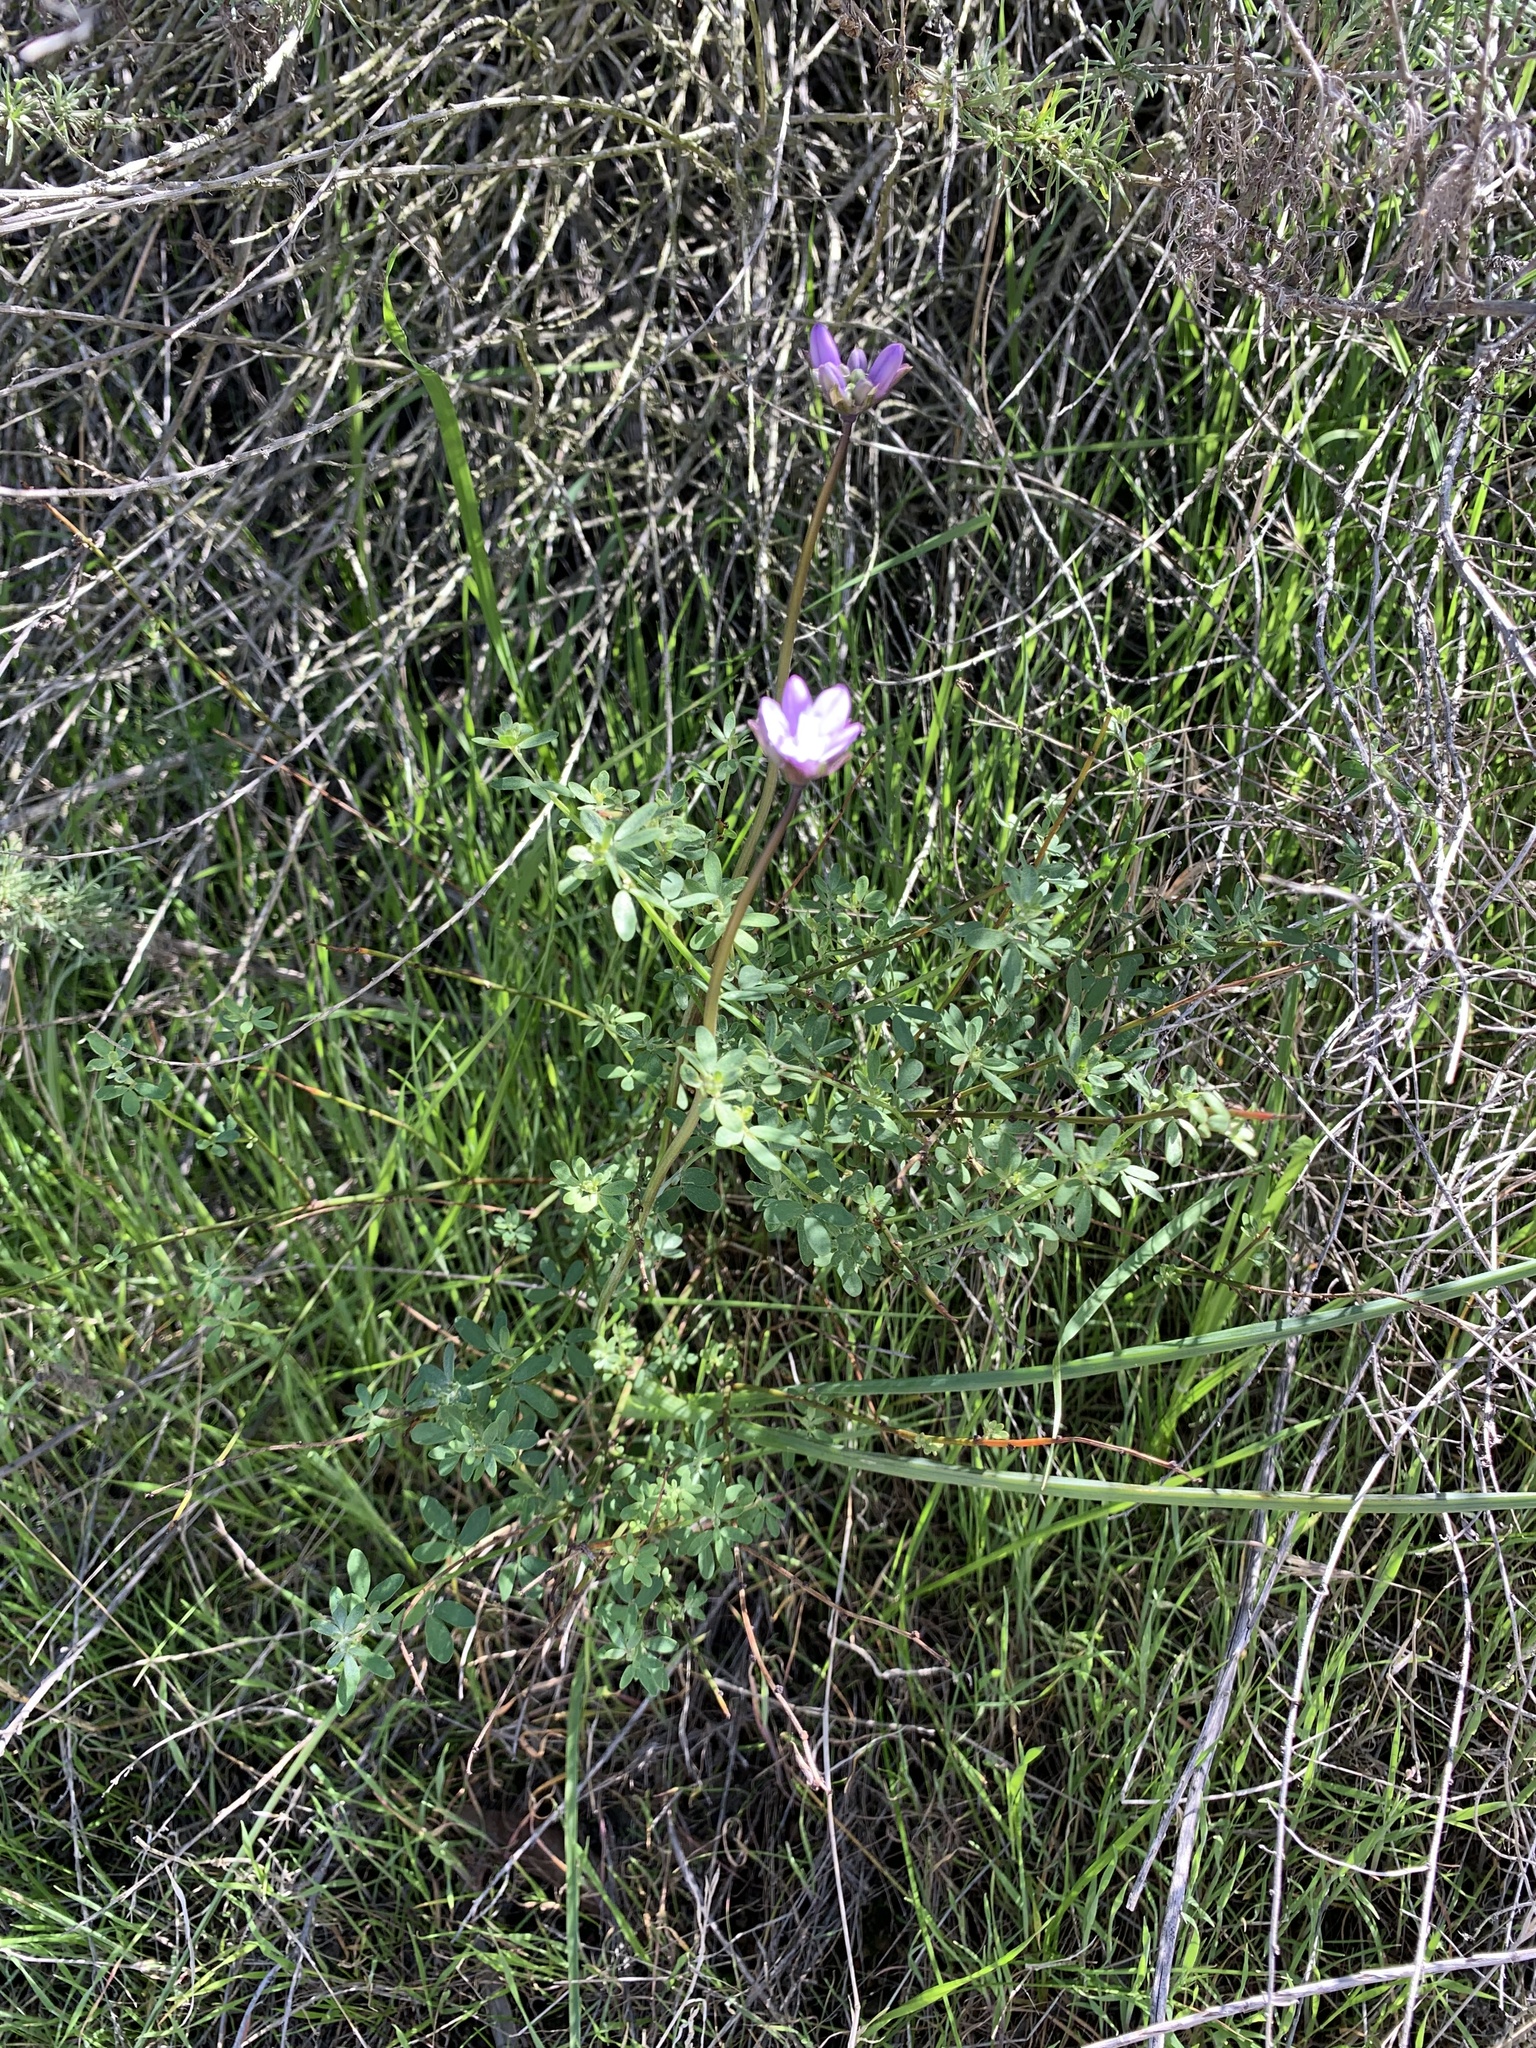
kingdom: Plantae
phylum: Tracheophyta
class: Liliopsida
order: Asparagales
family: Asparagaceae
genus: Dipterostemon
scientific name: Dipterostemon capitatus
